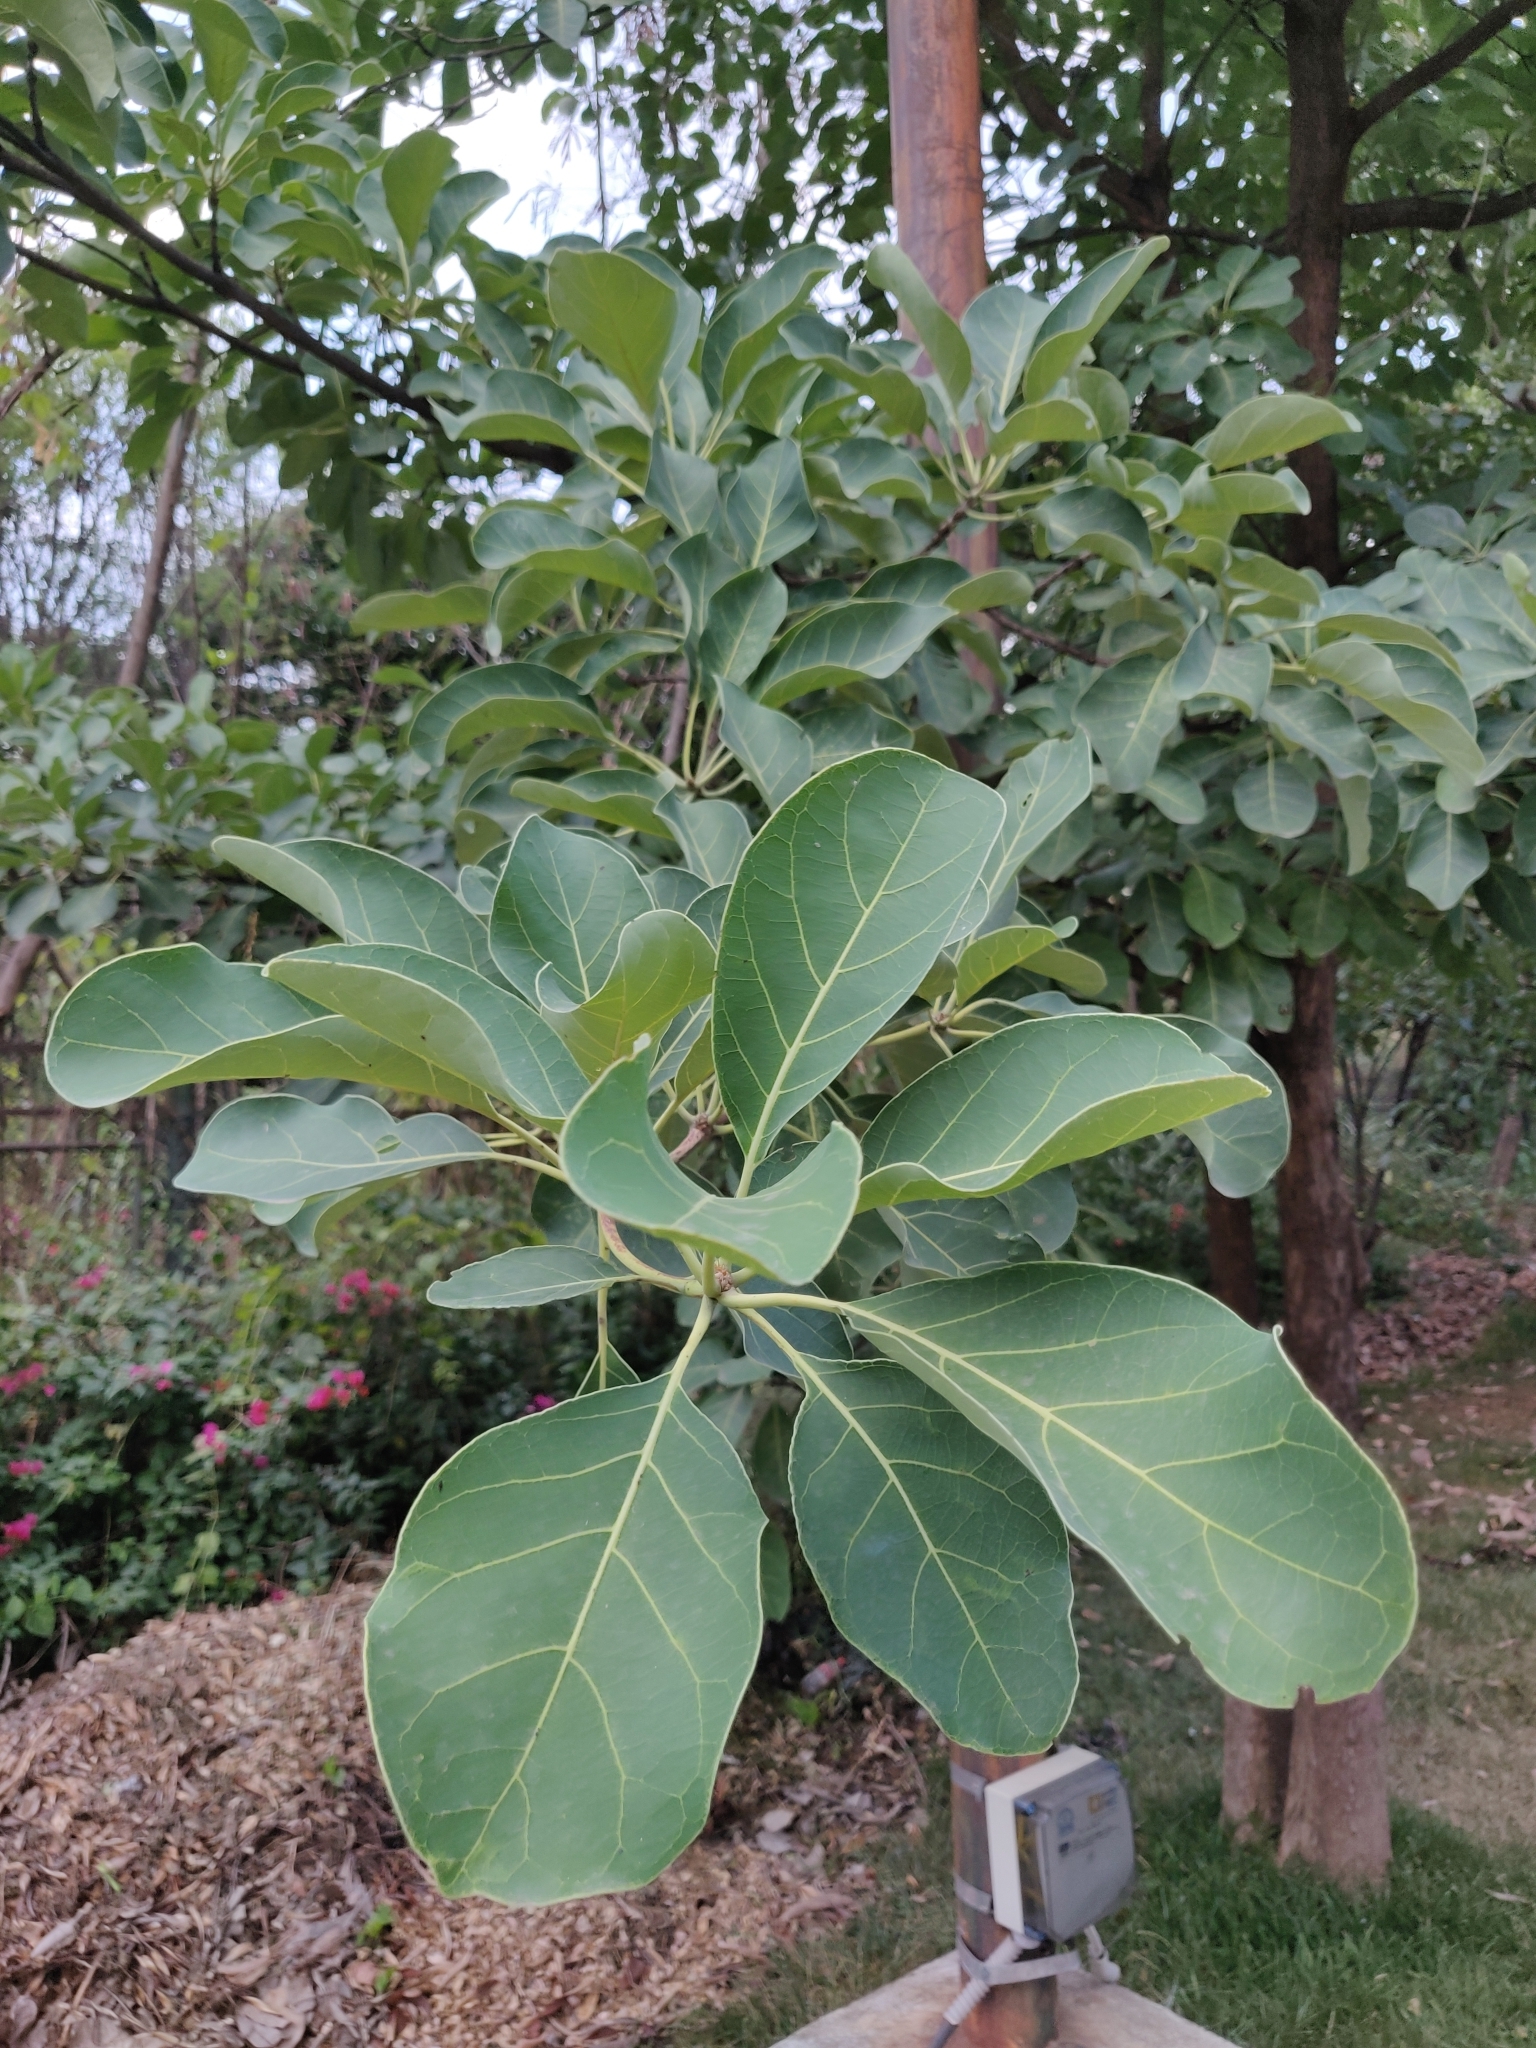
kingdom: Plantae
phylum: Tracheophyta
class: Magnoliopsida
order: Myrtales
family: Combretaceae
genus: Terminalia
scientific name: Terminalia bellirica
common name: Beleric myrobalan
